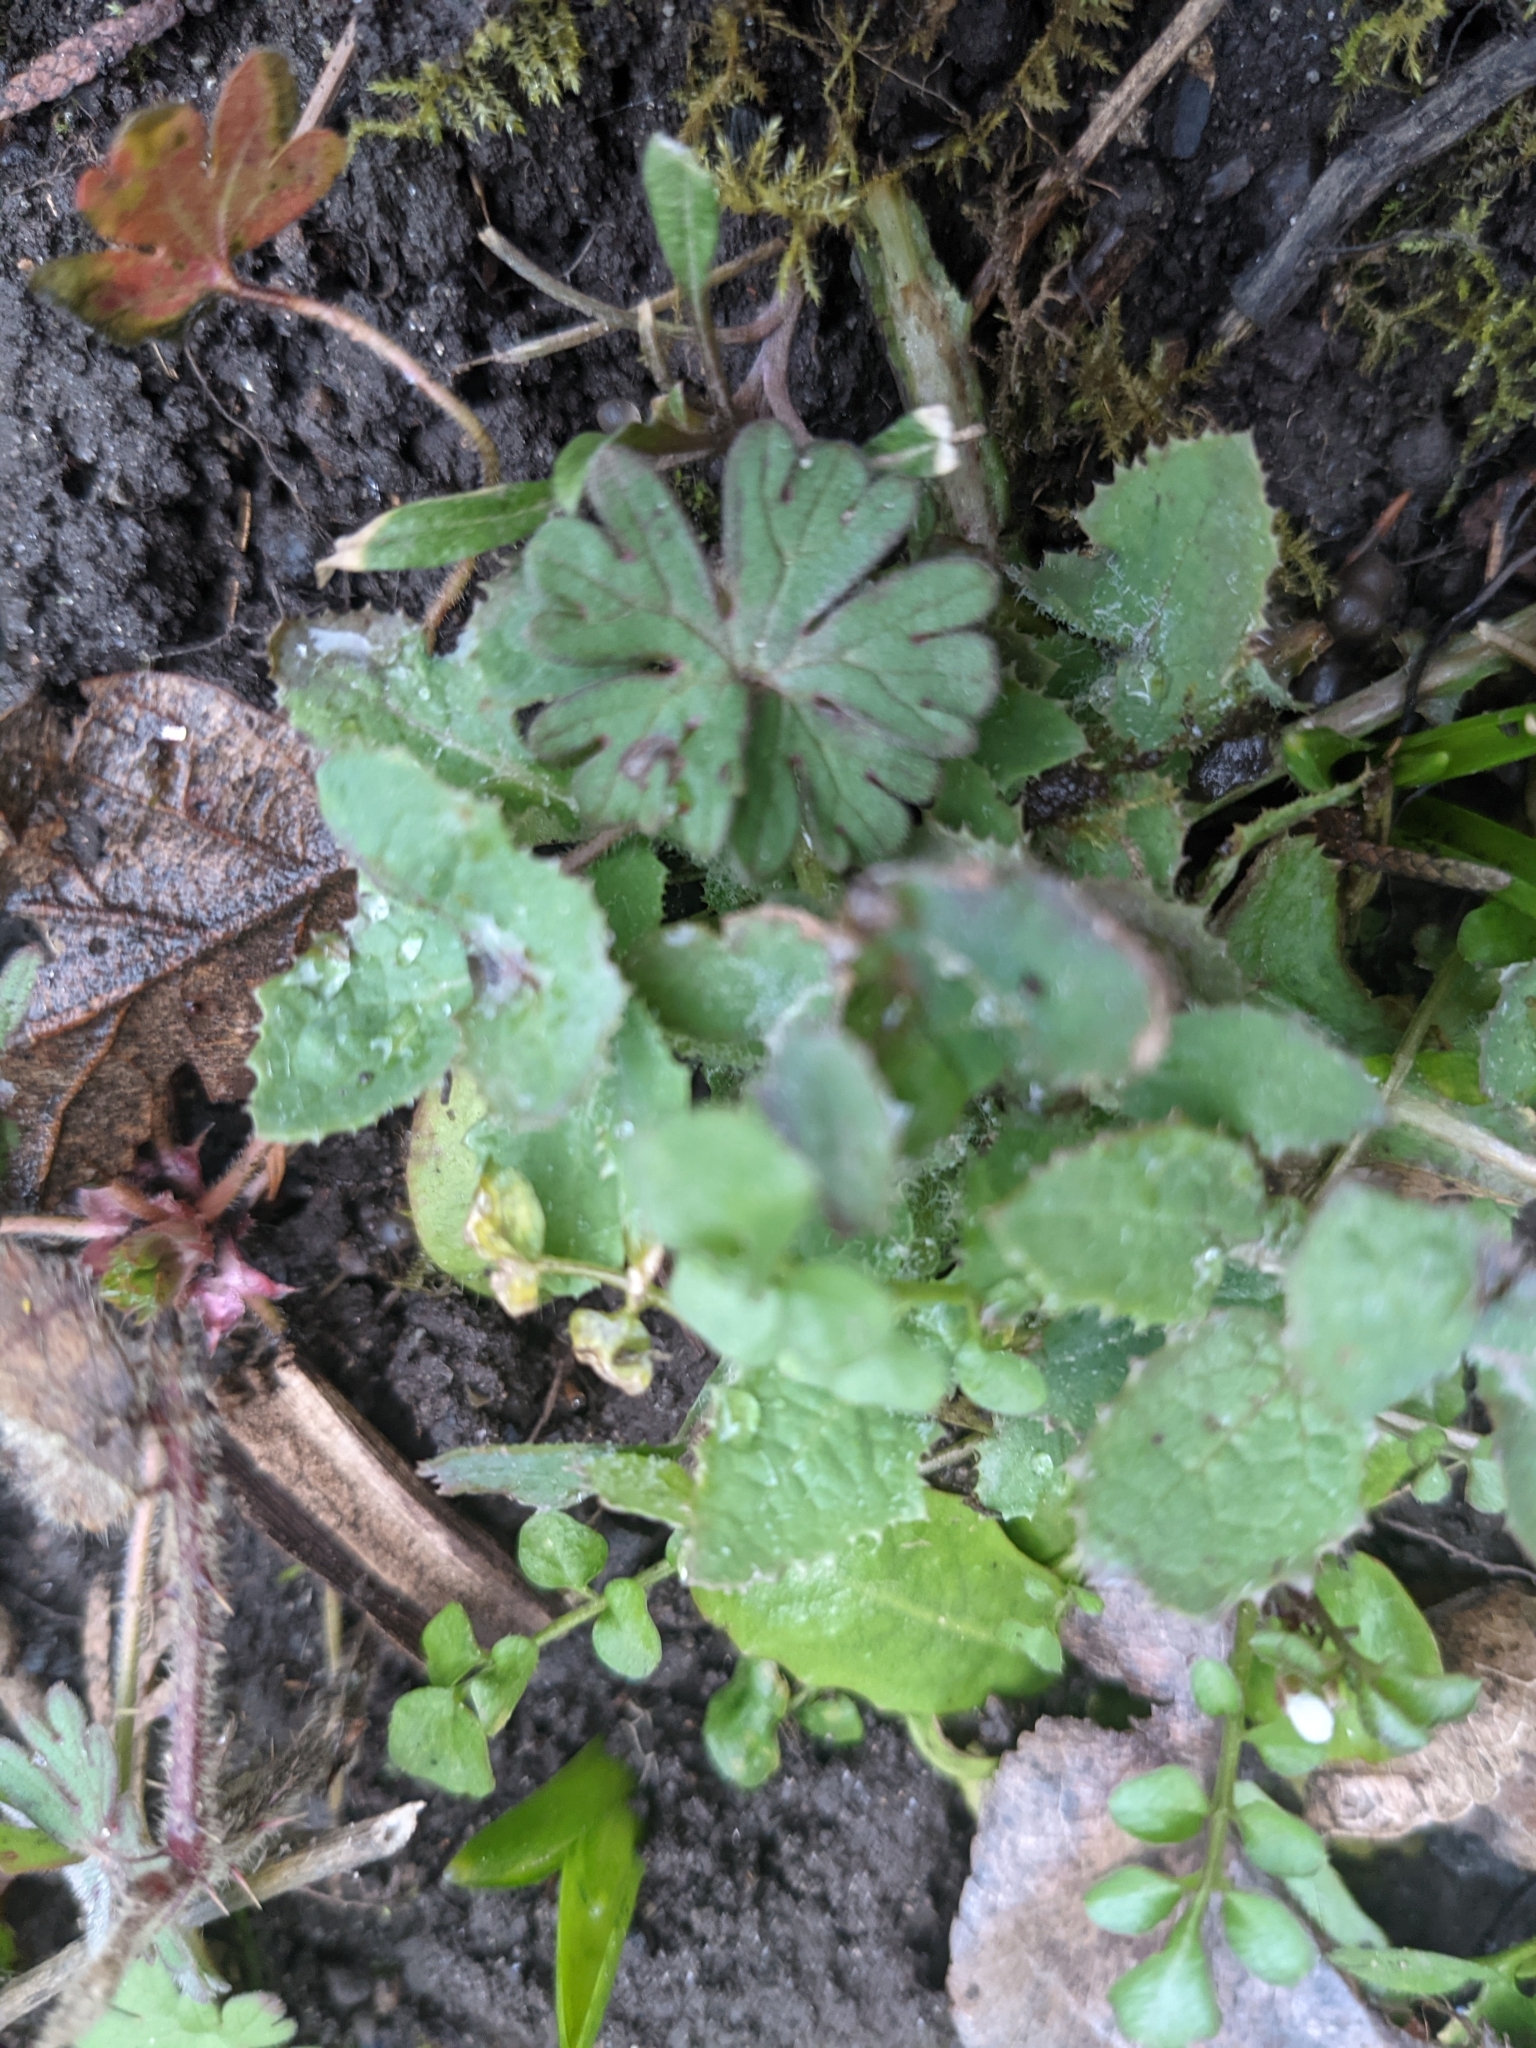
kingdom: Plantae
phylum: Tracheophyta
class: Magnoliopsida
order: Geraniales
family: Geraniaceae
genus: Geranium
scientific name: Geranium molle
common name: Dove's-foot crane's-bill
